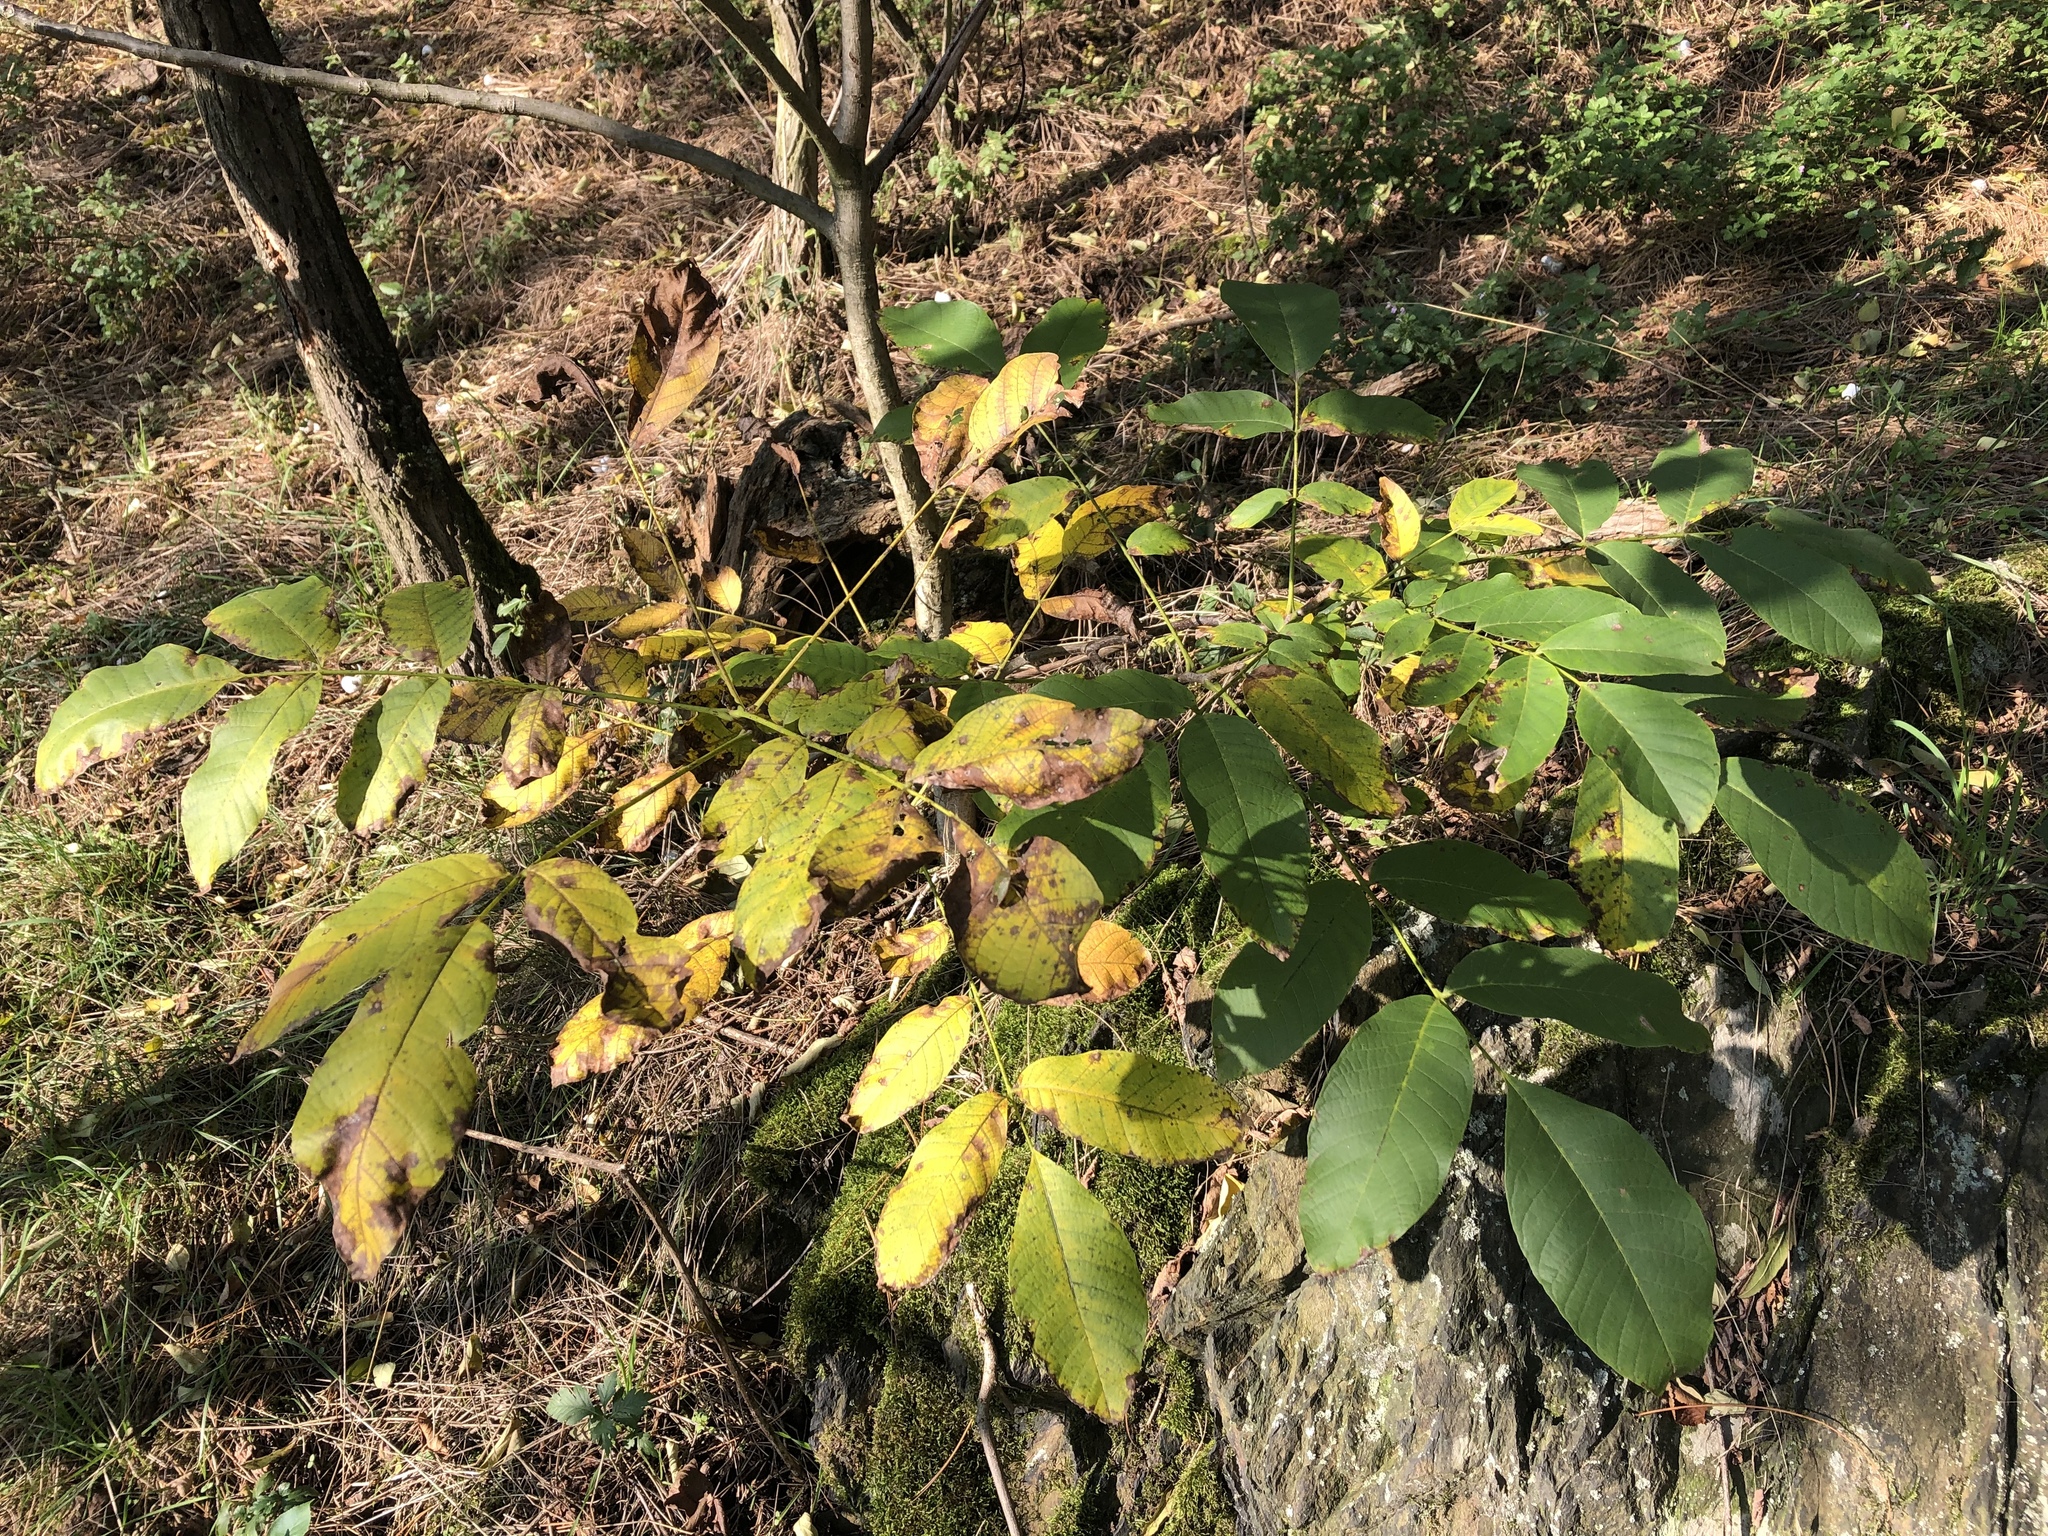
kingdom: Plantae
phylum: Tracheophyta
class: Magnoliopsida
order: Fagales
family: Juglandaceae
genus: Juglans
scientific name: Juglans regia
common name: Walnut
